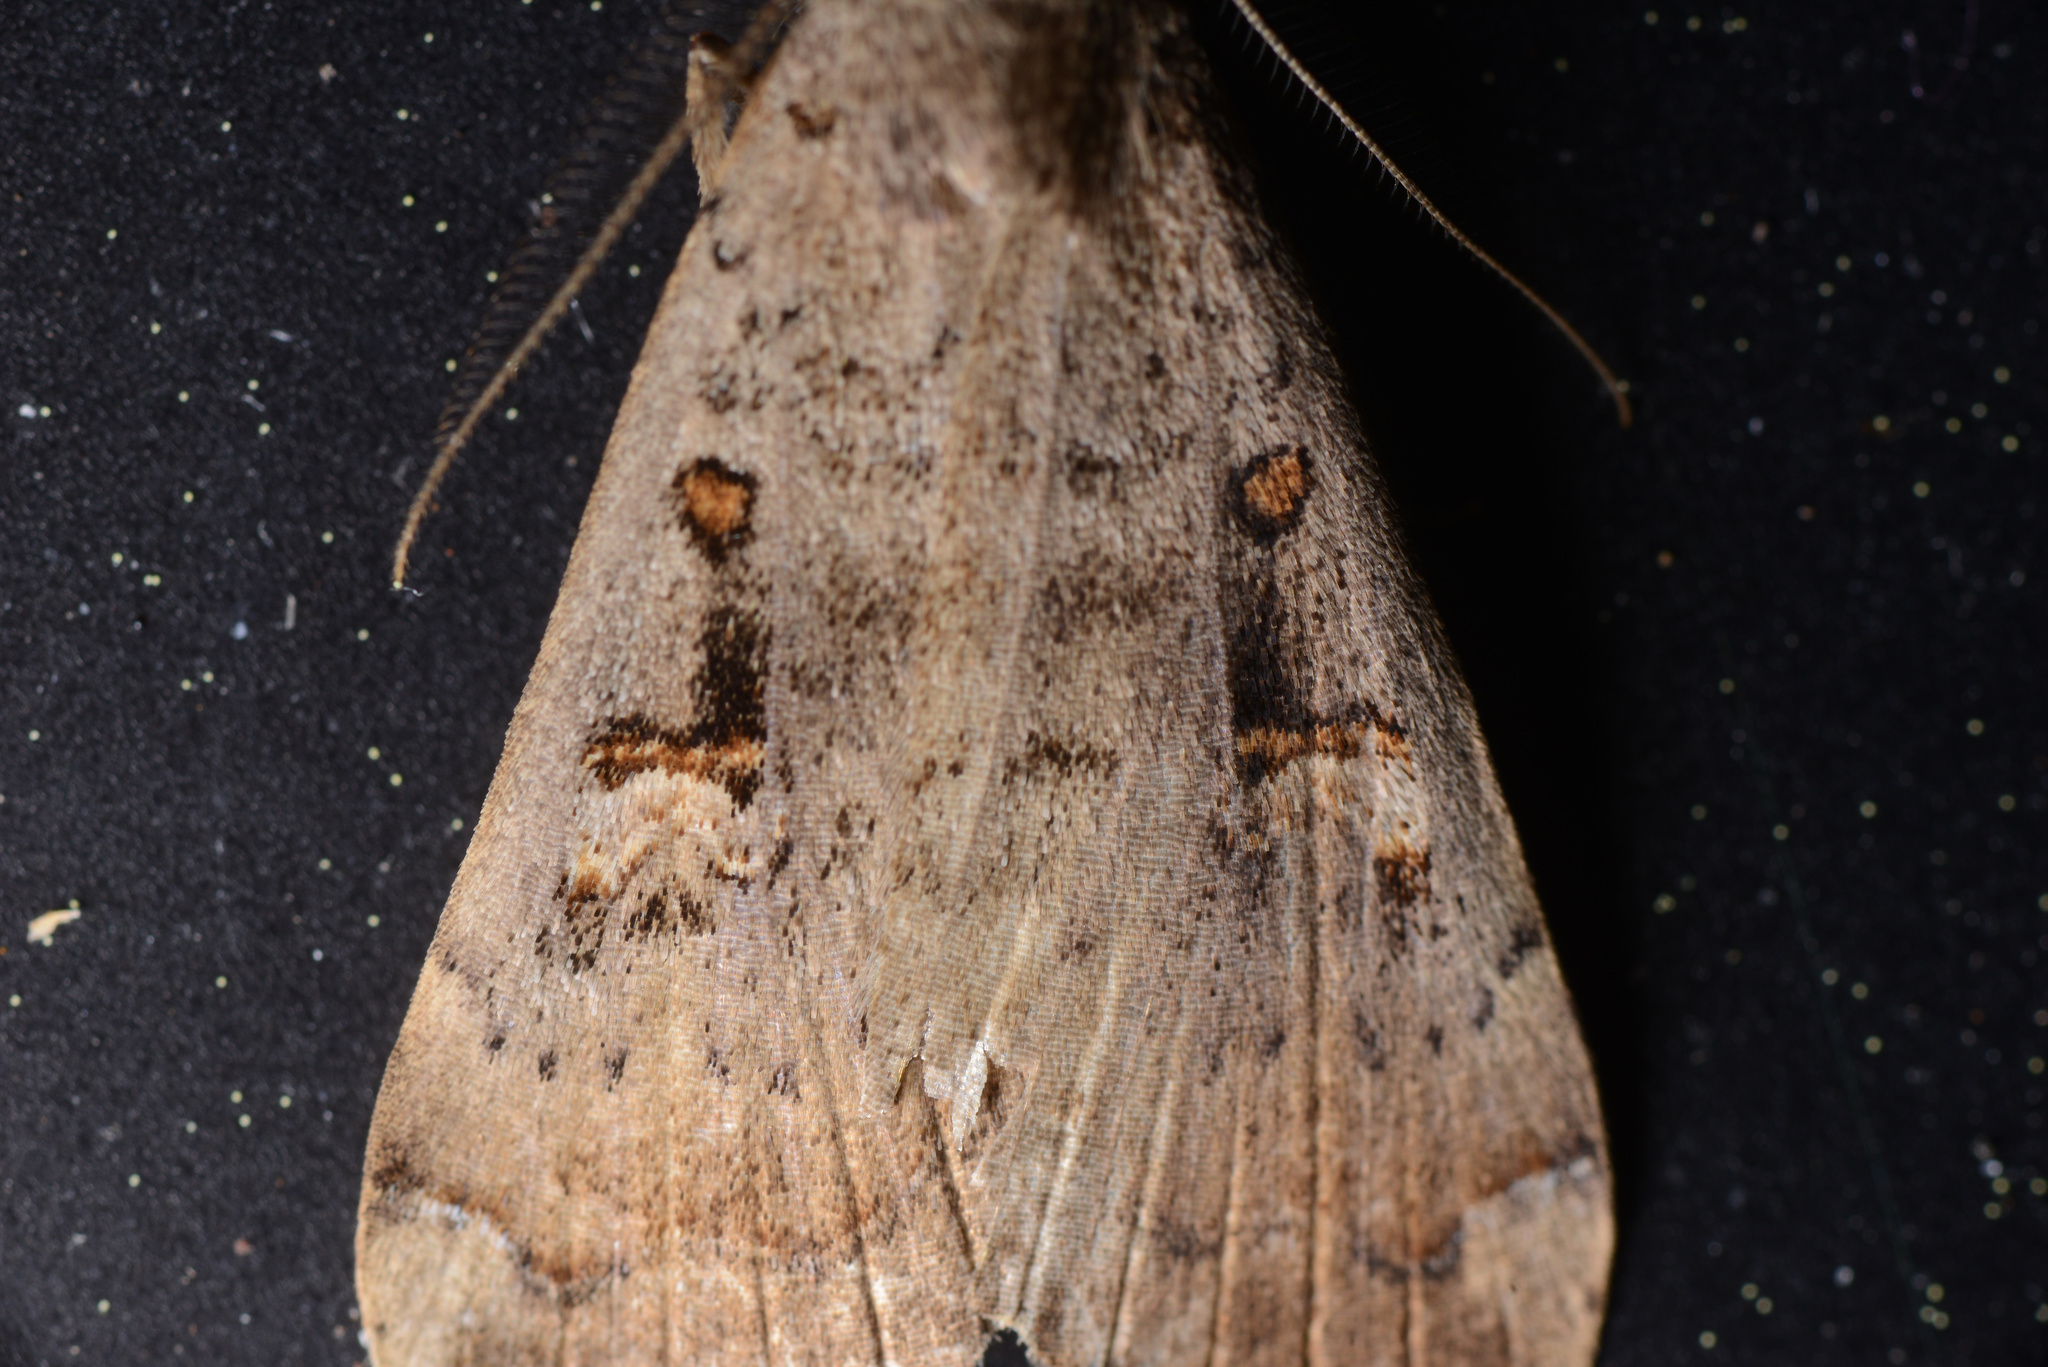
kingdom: Animalia
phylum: Arthropoda
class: Insecta
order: Lepidoptera
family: Erebidae
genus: Rhapsa
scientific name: Rhapsa scotosialis
